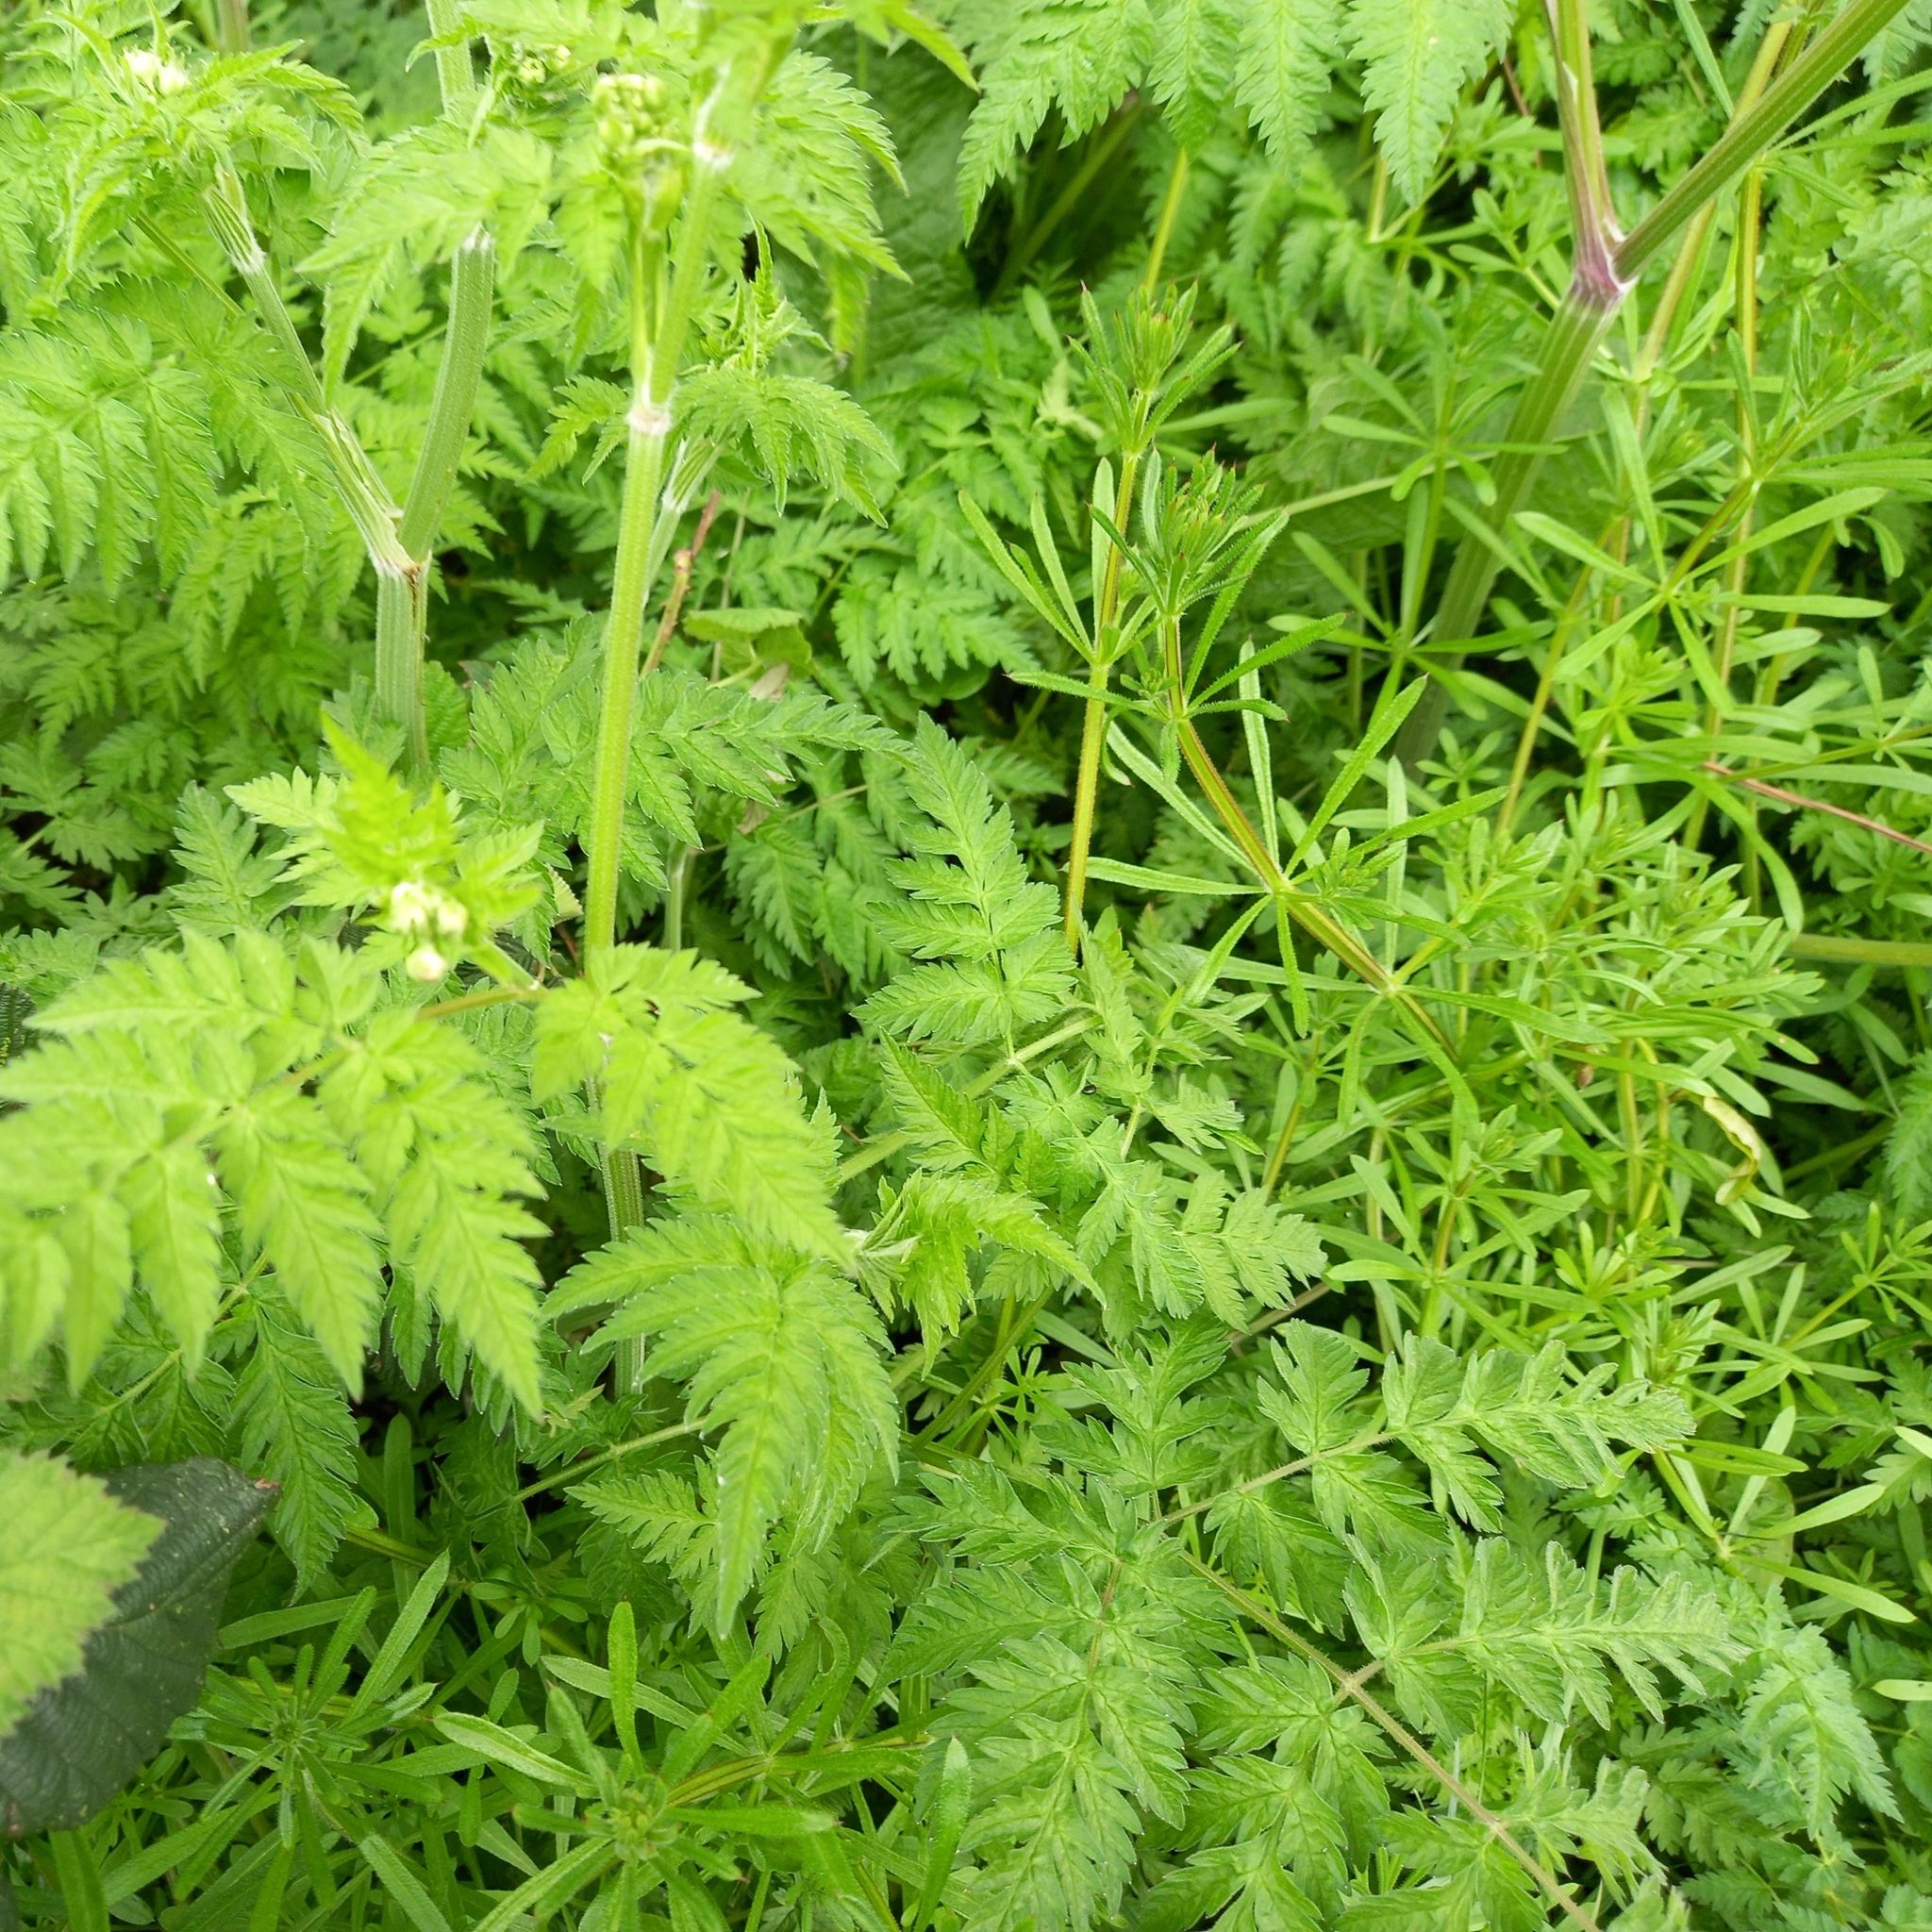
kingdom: Plantae
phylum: Tracheophyta
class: Magnoliopsida
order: Apiales
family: Apiaceae
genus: Anthriscus
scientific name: Anthriscus sylvestris
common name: Cow parsley
